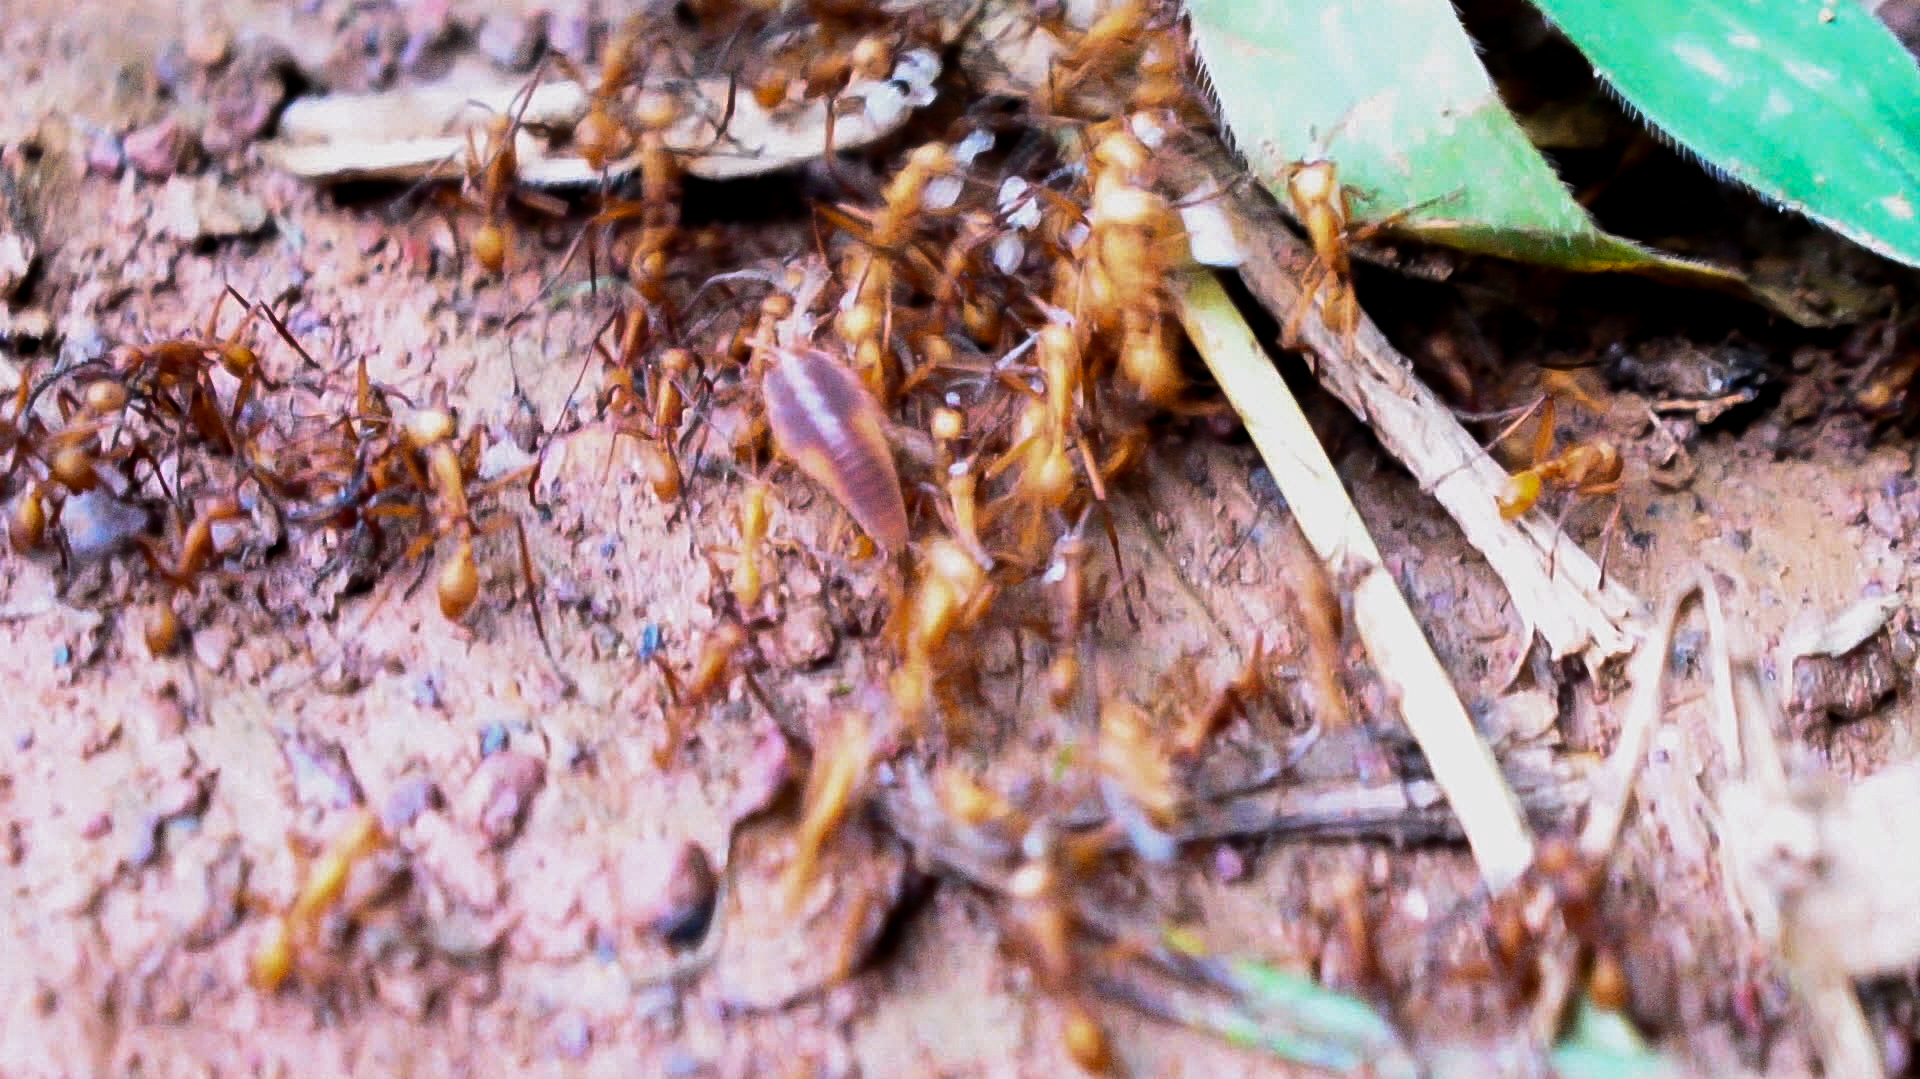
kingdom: Animalia
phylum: Arthropoda
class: Insecta
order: Zygentoma
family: Nicoletiidae
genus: Trichatelura
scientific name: Trichatelura manni
